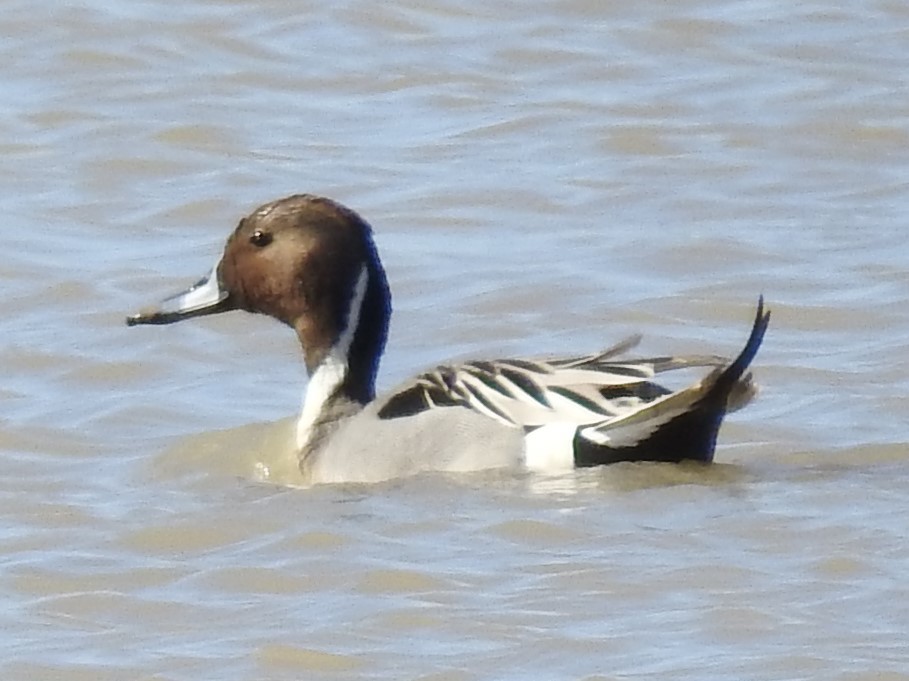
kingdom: Animalia
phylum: Chordata
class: Aves
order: Anseriformes
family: Anatidae
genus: Anas
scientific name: Anas acuta
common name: Northern pintail
